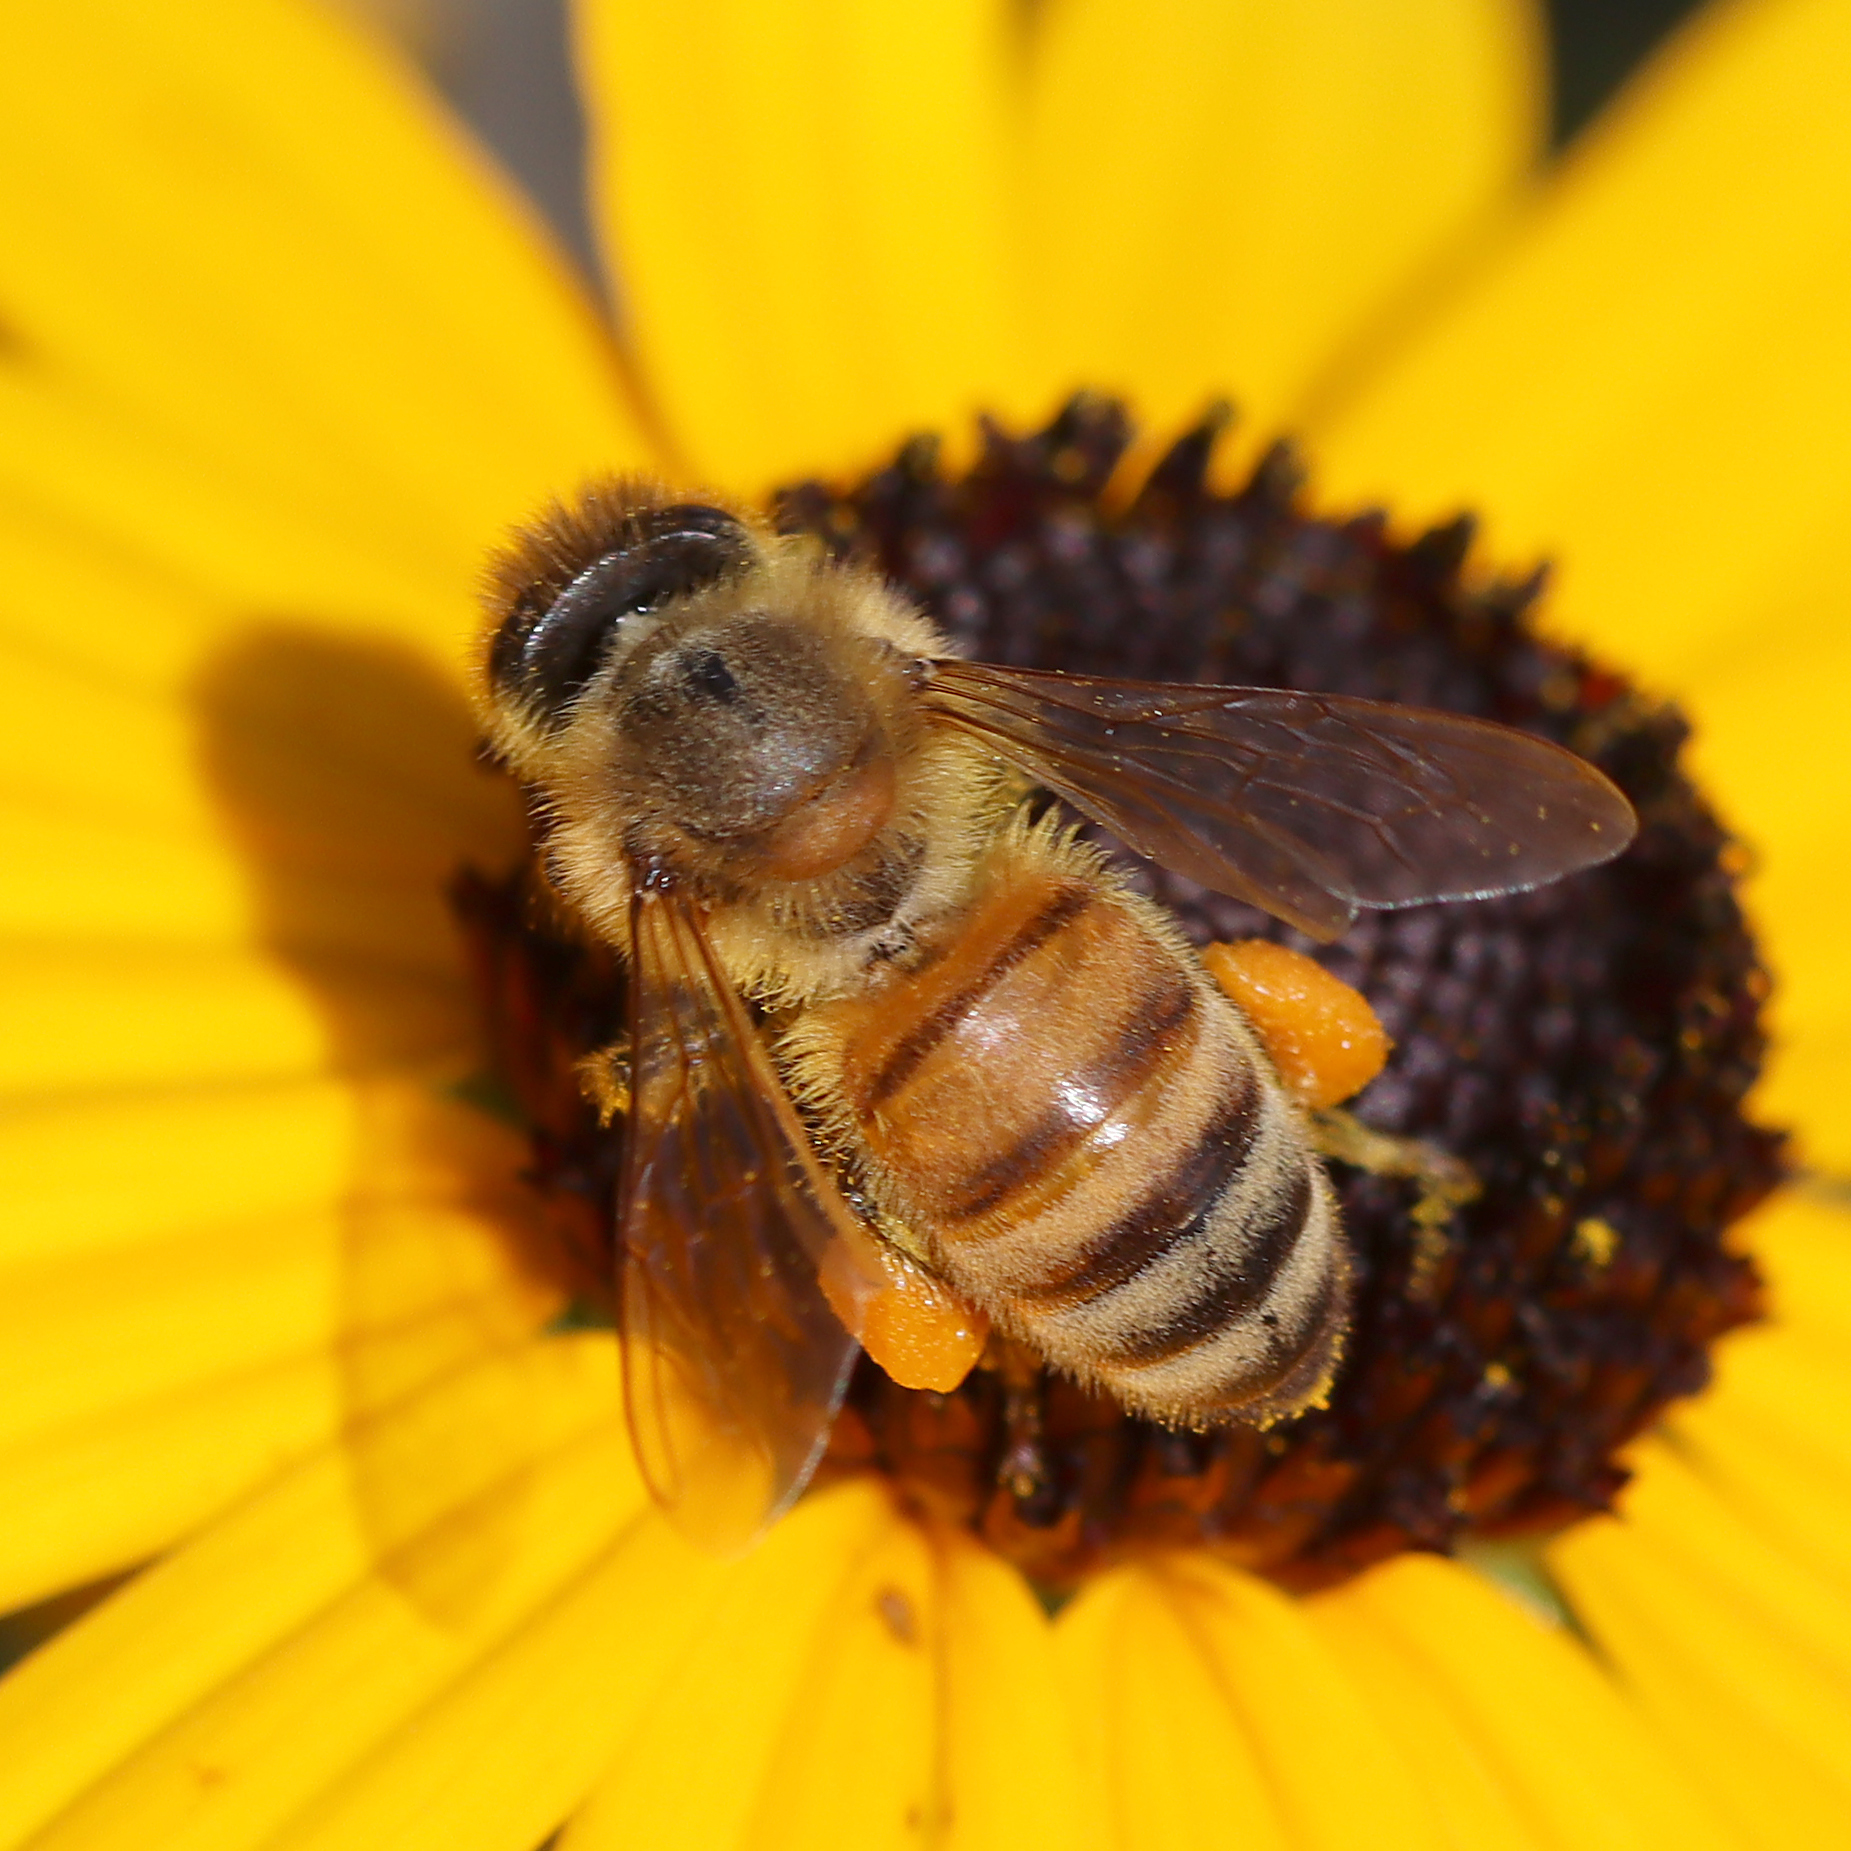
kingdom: Animalia
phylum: Arthropoda
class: Insecta
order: Hymenoptera
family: Apidae
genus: Apis
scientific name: Apis mellifera
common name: Honey bee
